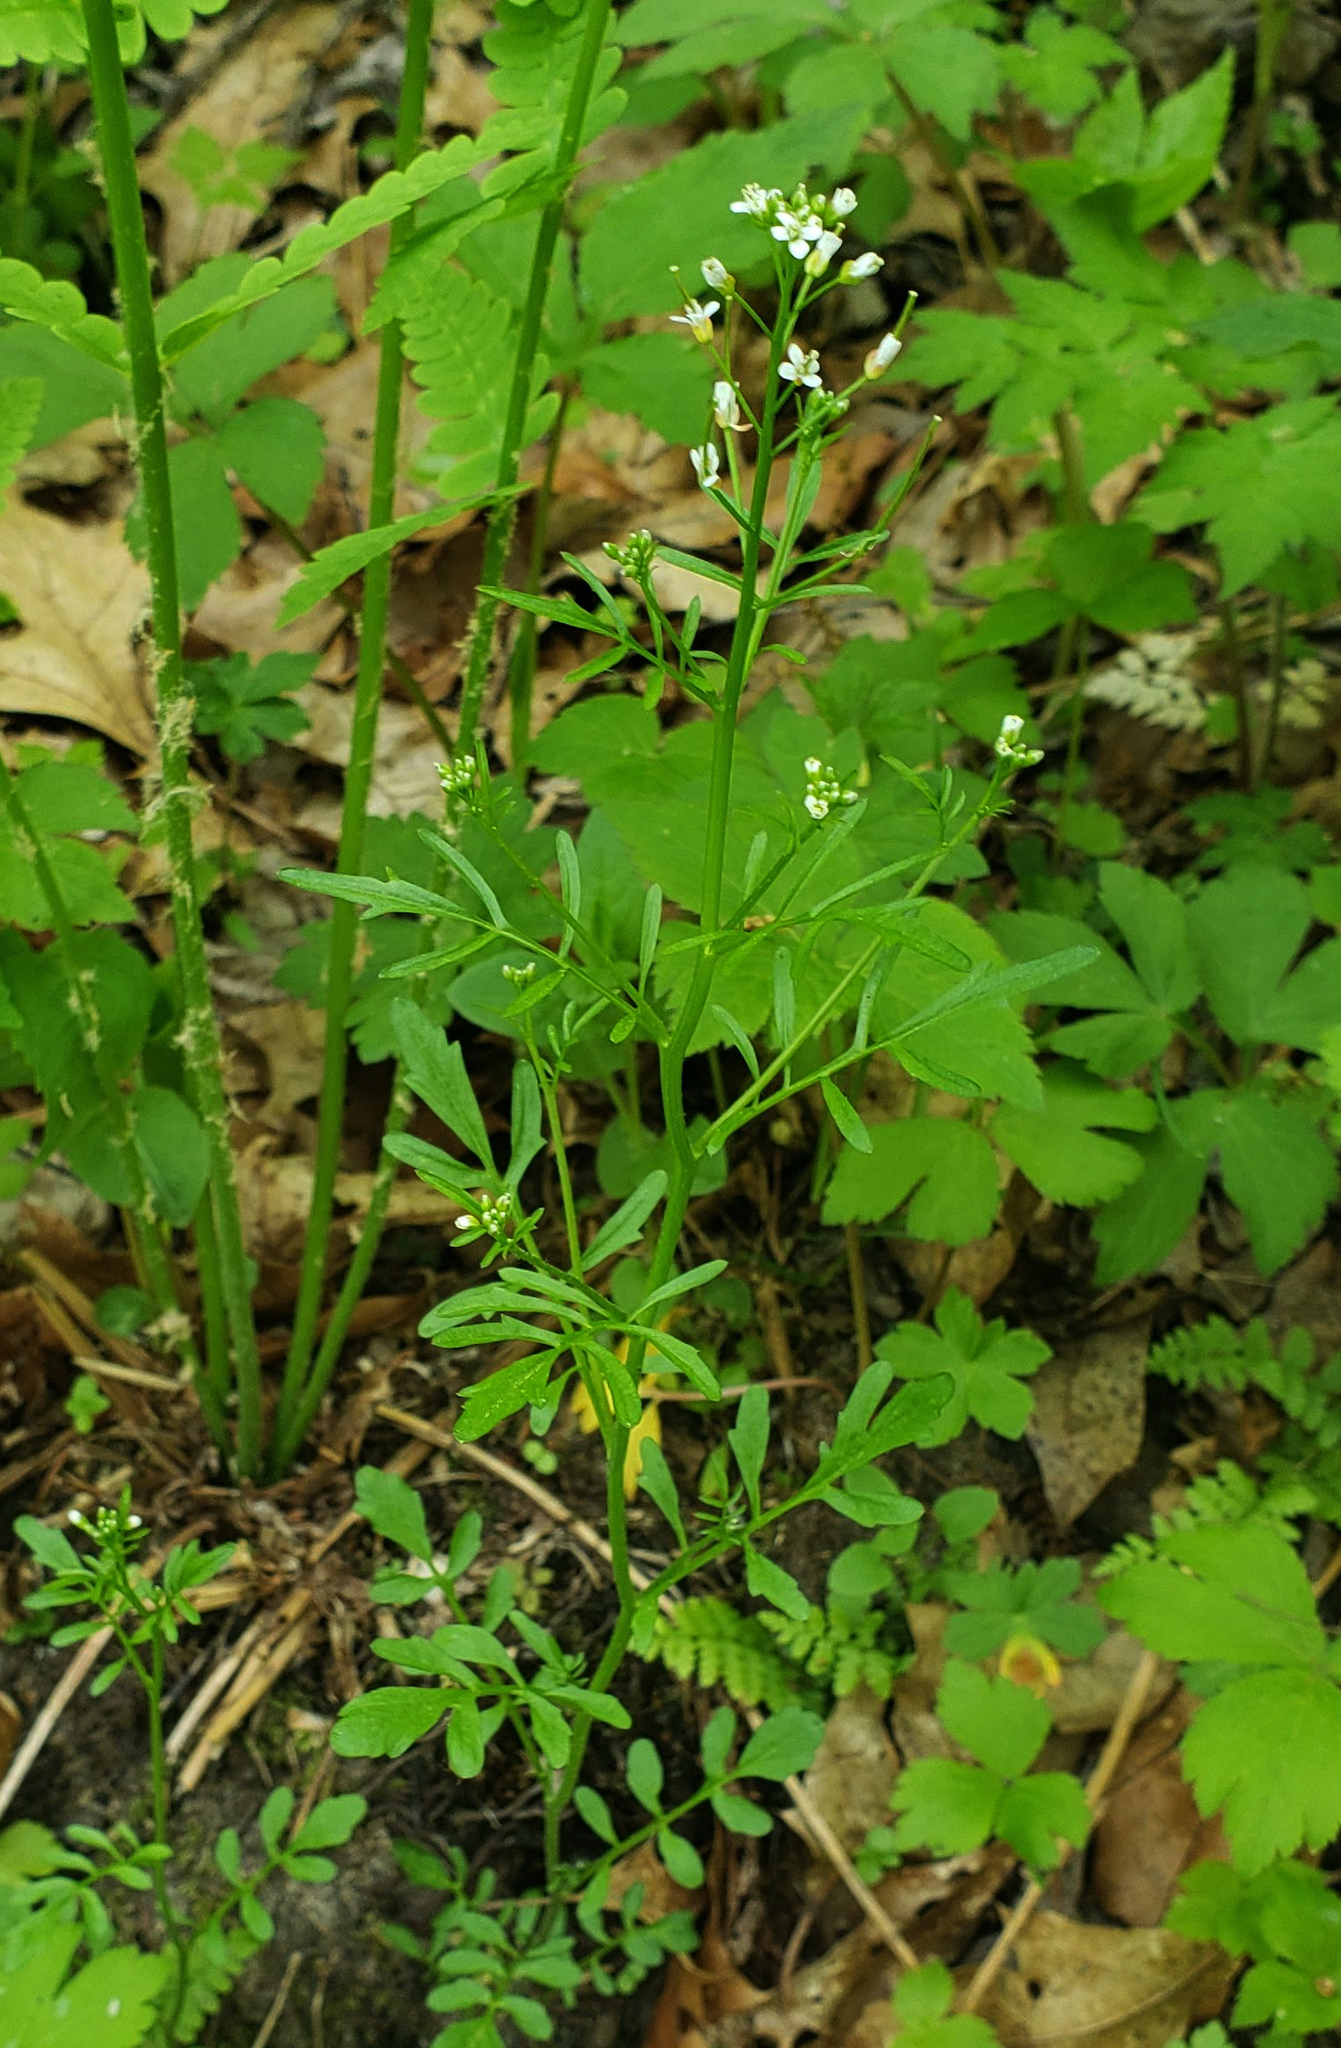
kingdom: Plantae
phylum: Tracheophyta
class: Magnoliopsida
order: Brassicales
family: Brassicaceae
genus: Cardamine
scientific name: Cardamine pensylvanica
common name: Pennsylvania bittercress
